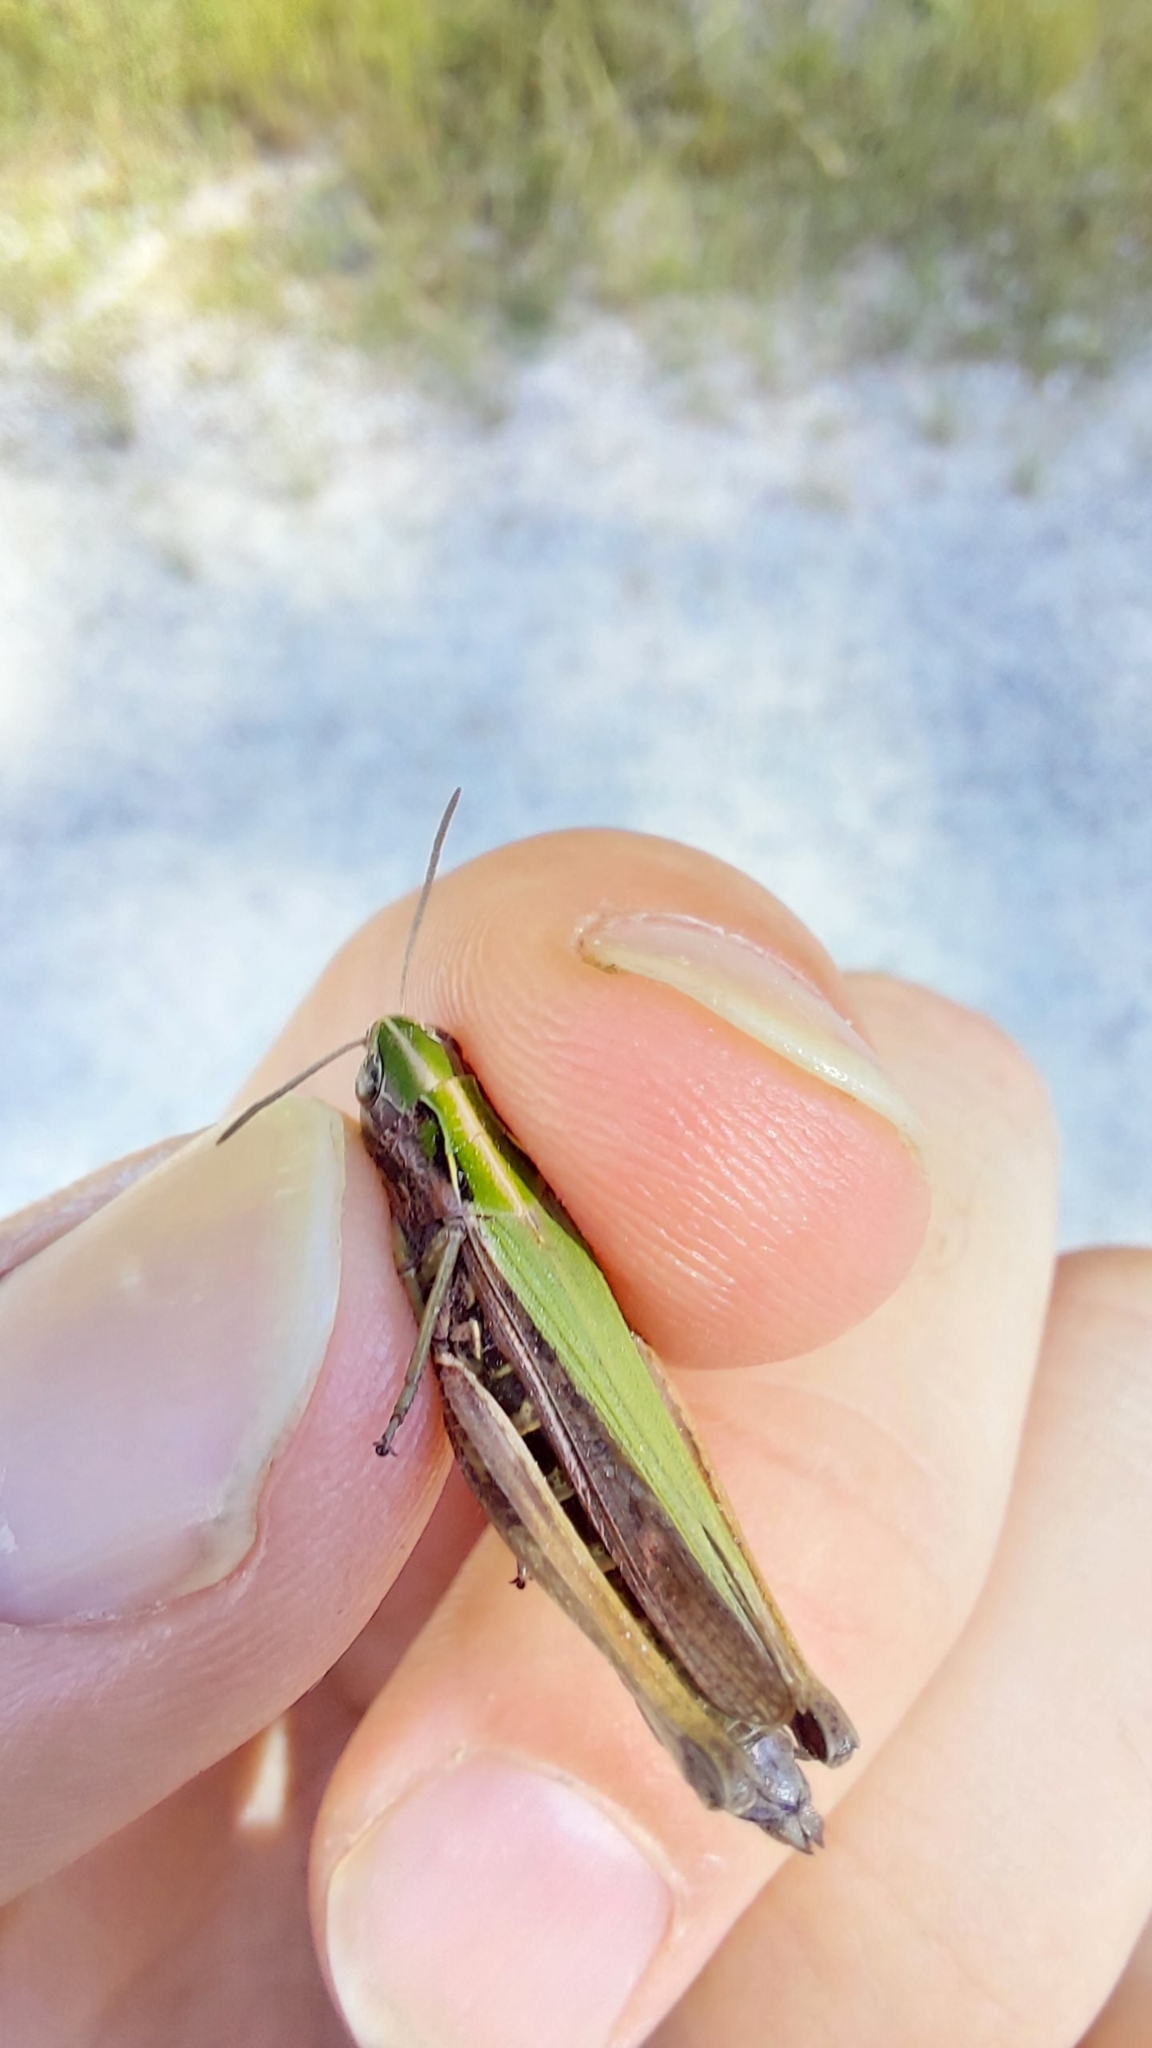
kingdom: Animalia
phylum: Arthropoda
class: Insecta
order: Orthoptera
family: Acrididae
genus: Omocestus
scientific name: Omocestus viridulus
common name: Common green grasshopper
